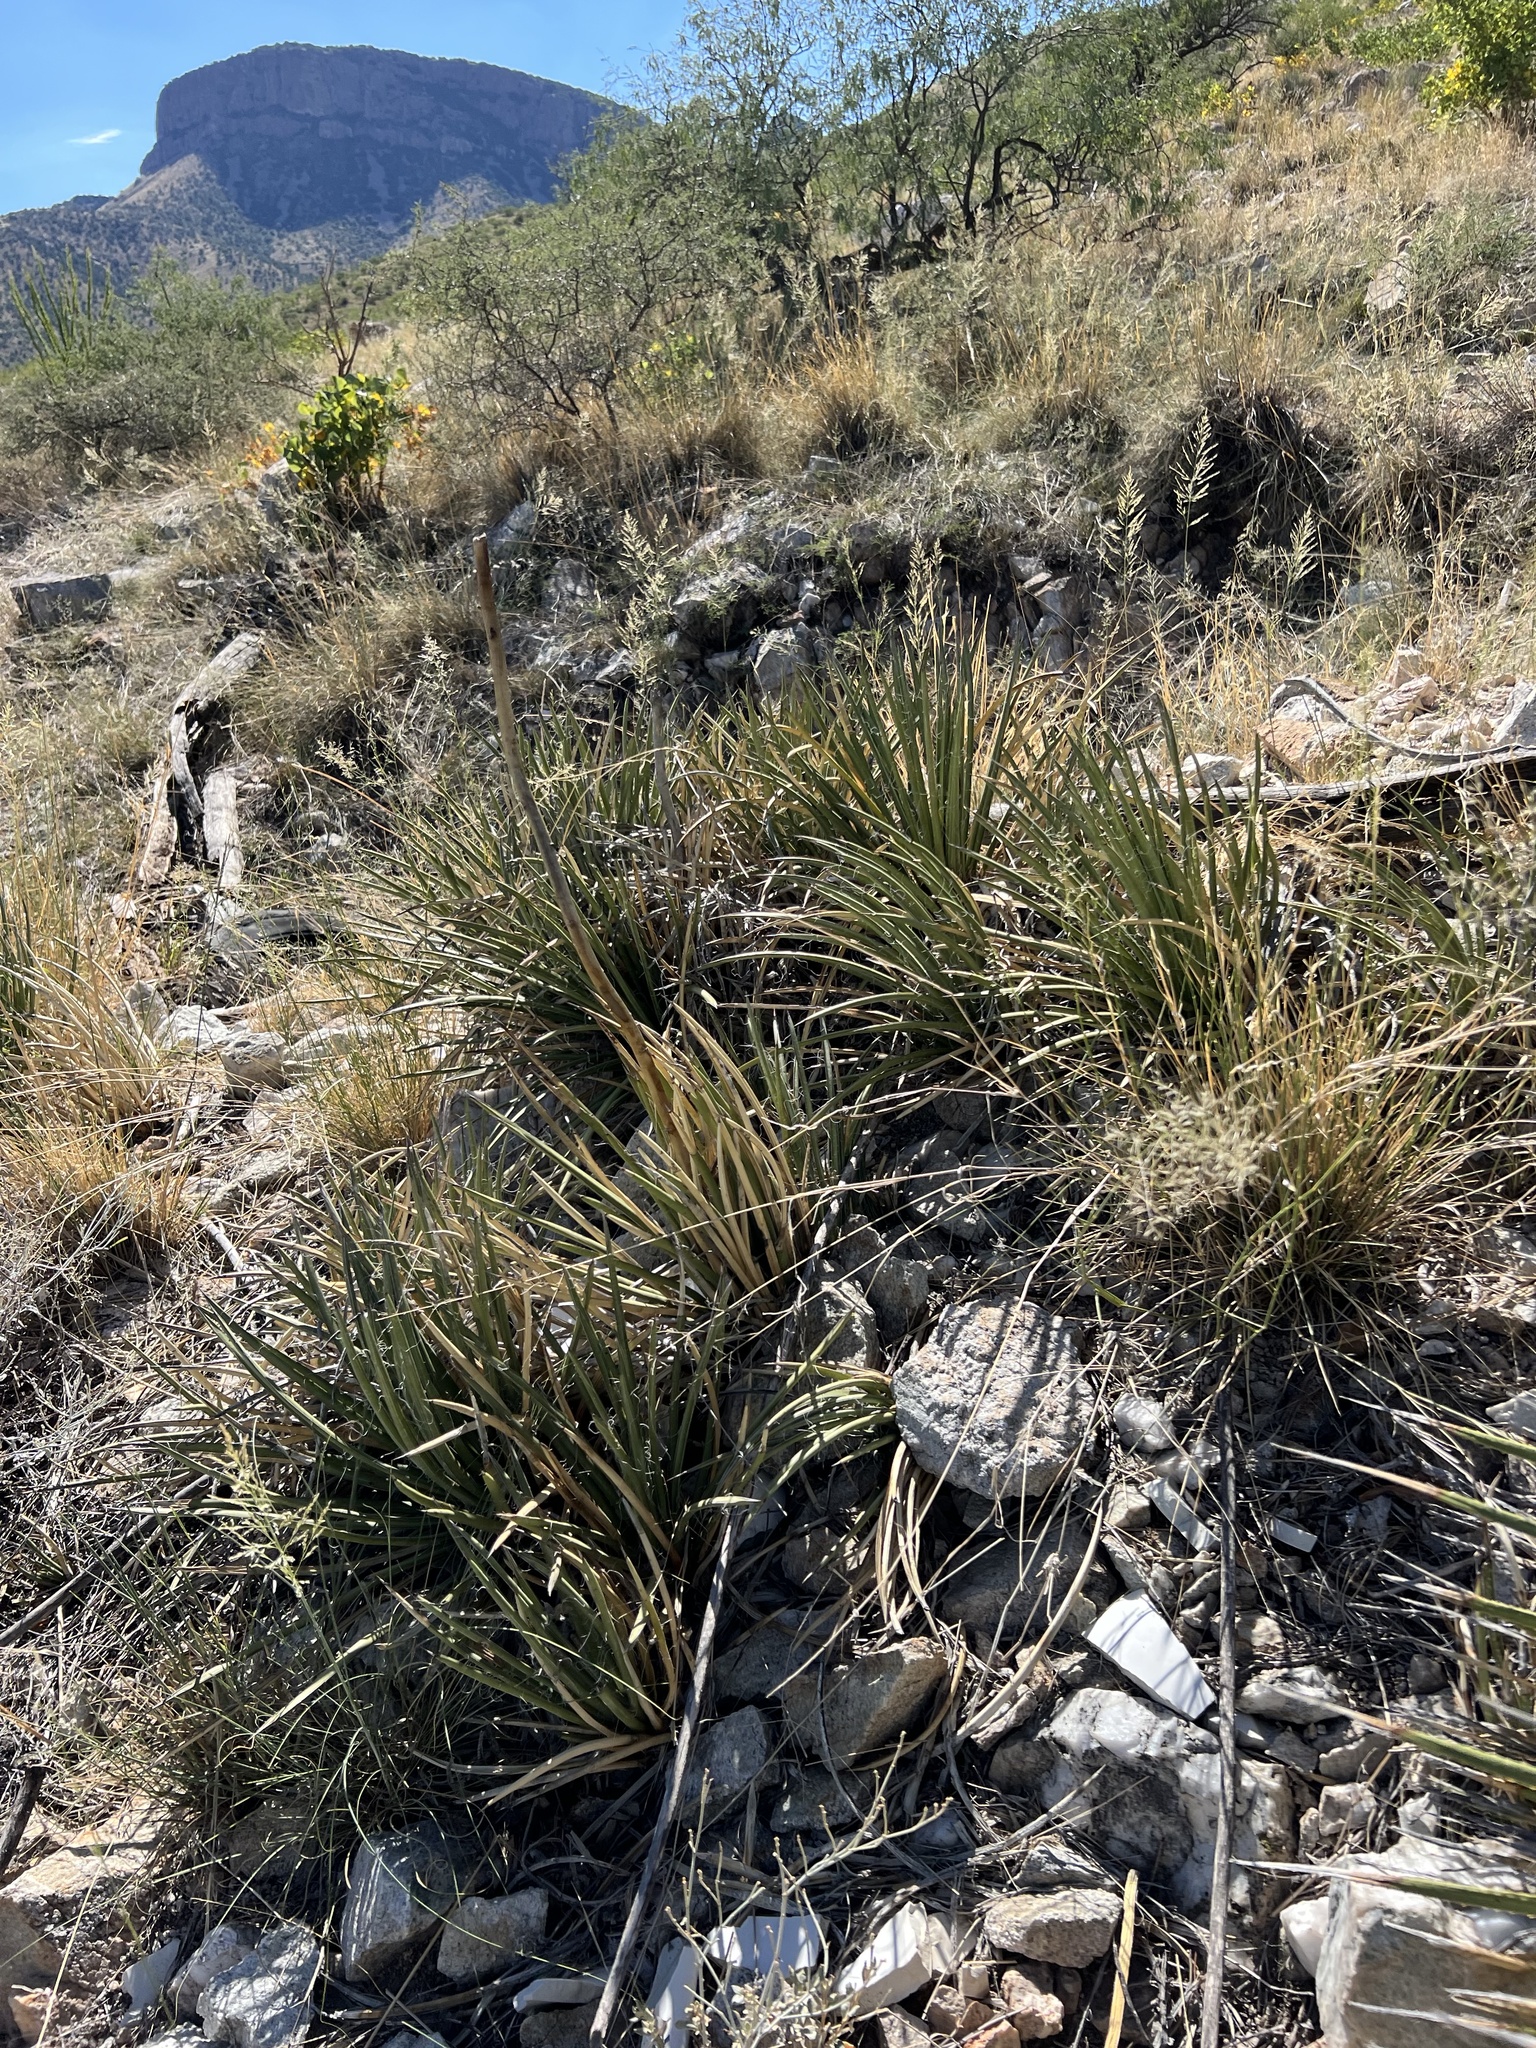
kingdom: Plantae
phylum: Tracheophyta
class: Liliopsida
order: Asparagales
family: Asparagaceae
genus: Agave
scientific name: Agave schottii
